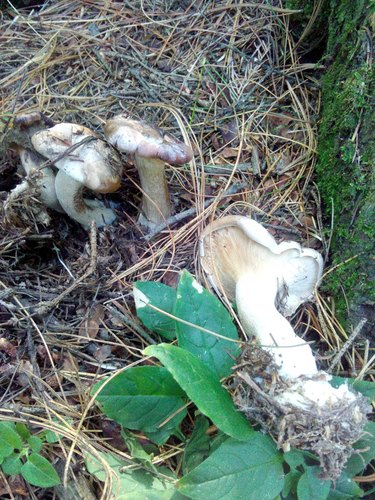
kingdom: Fungi
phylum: Basidiomycota
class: Agaricomycetes
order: Agaricales
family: Tricholomataceae
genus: Tricholoma
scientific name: Tricholoma terreum
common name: Grey knight
